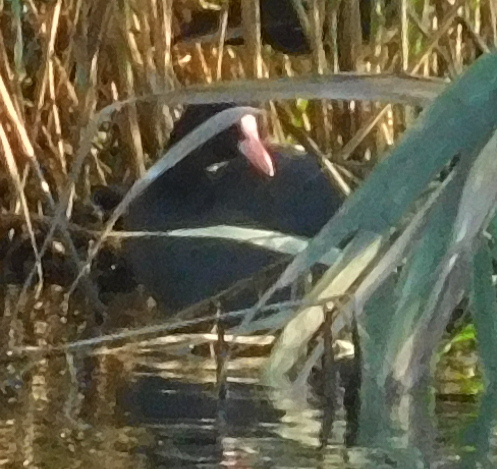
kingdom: Animalia
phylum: Chordata
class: Aves
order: Gruiformes
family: Rallidae
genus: Fulica
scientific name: Fulica atra
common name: Eurasian coot
